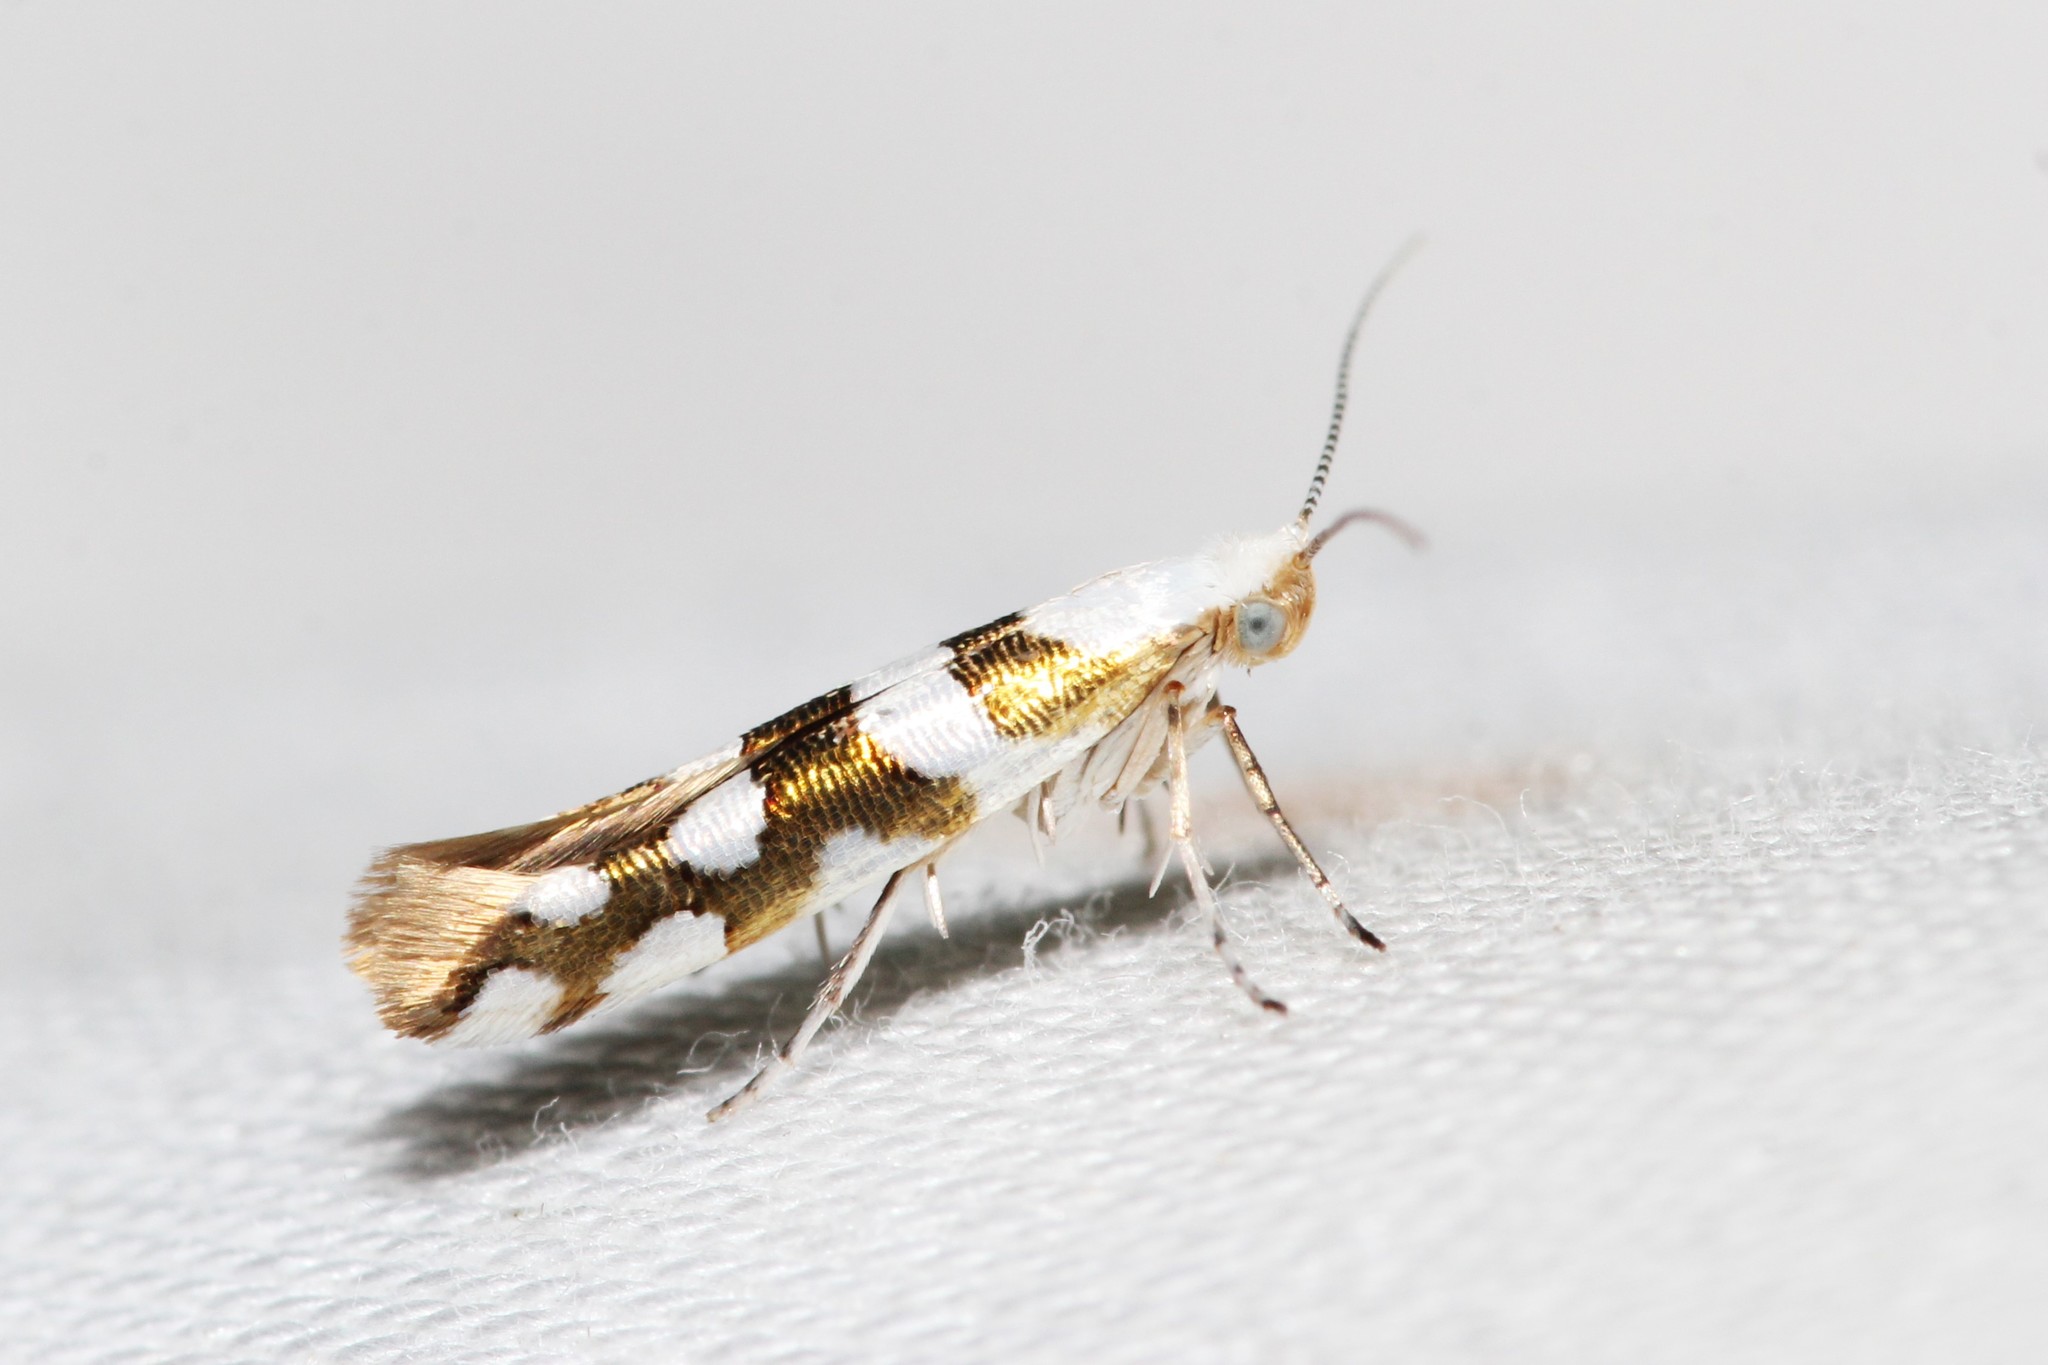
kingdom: Animalia
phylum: Arthropoda
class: Insecta
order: Lepidoptera
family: Argyresthiidae
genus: Argyresthia
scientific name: Argyresthia calliphanes
